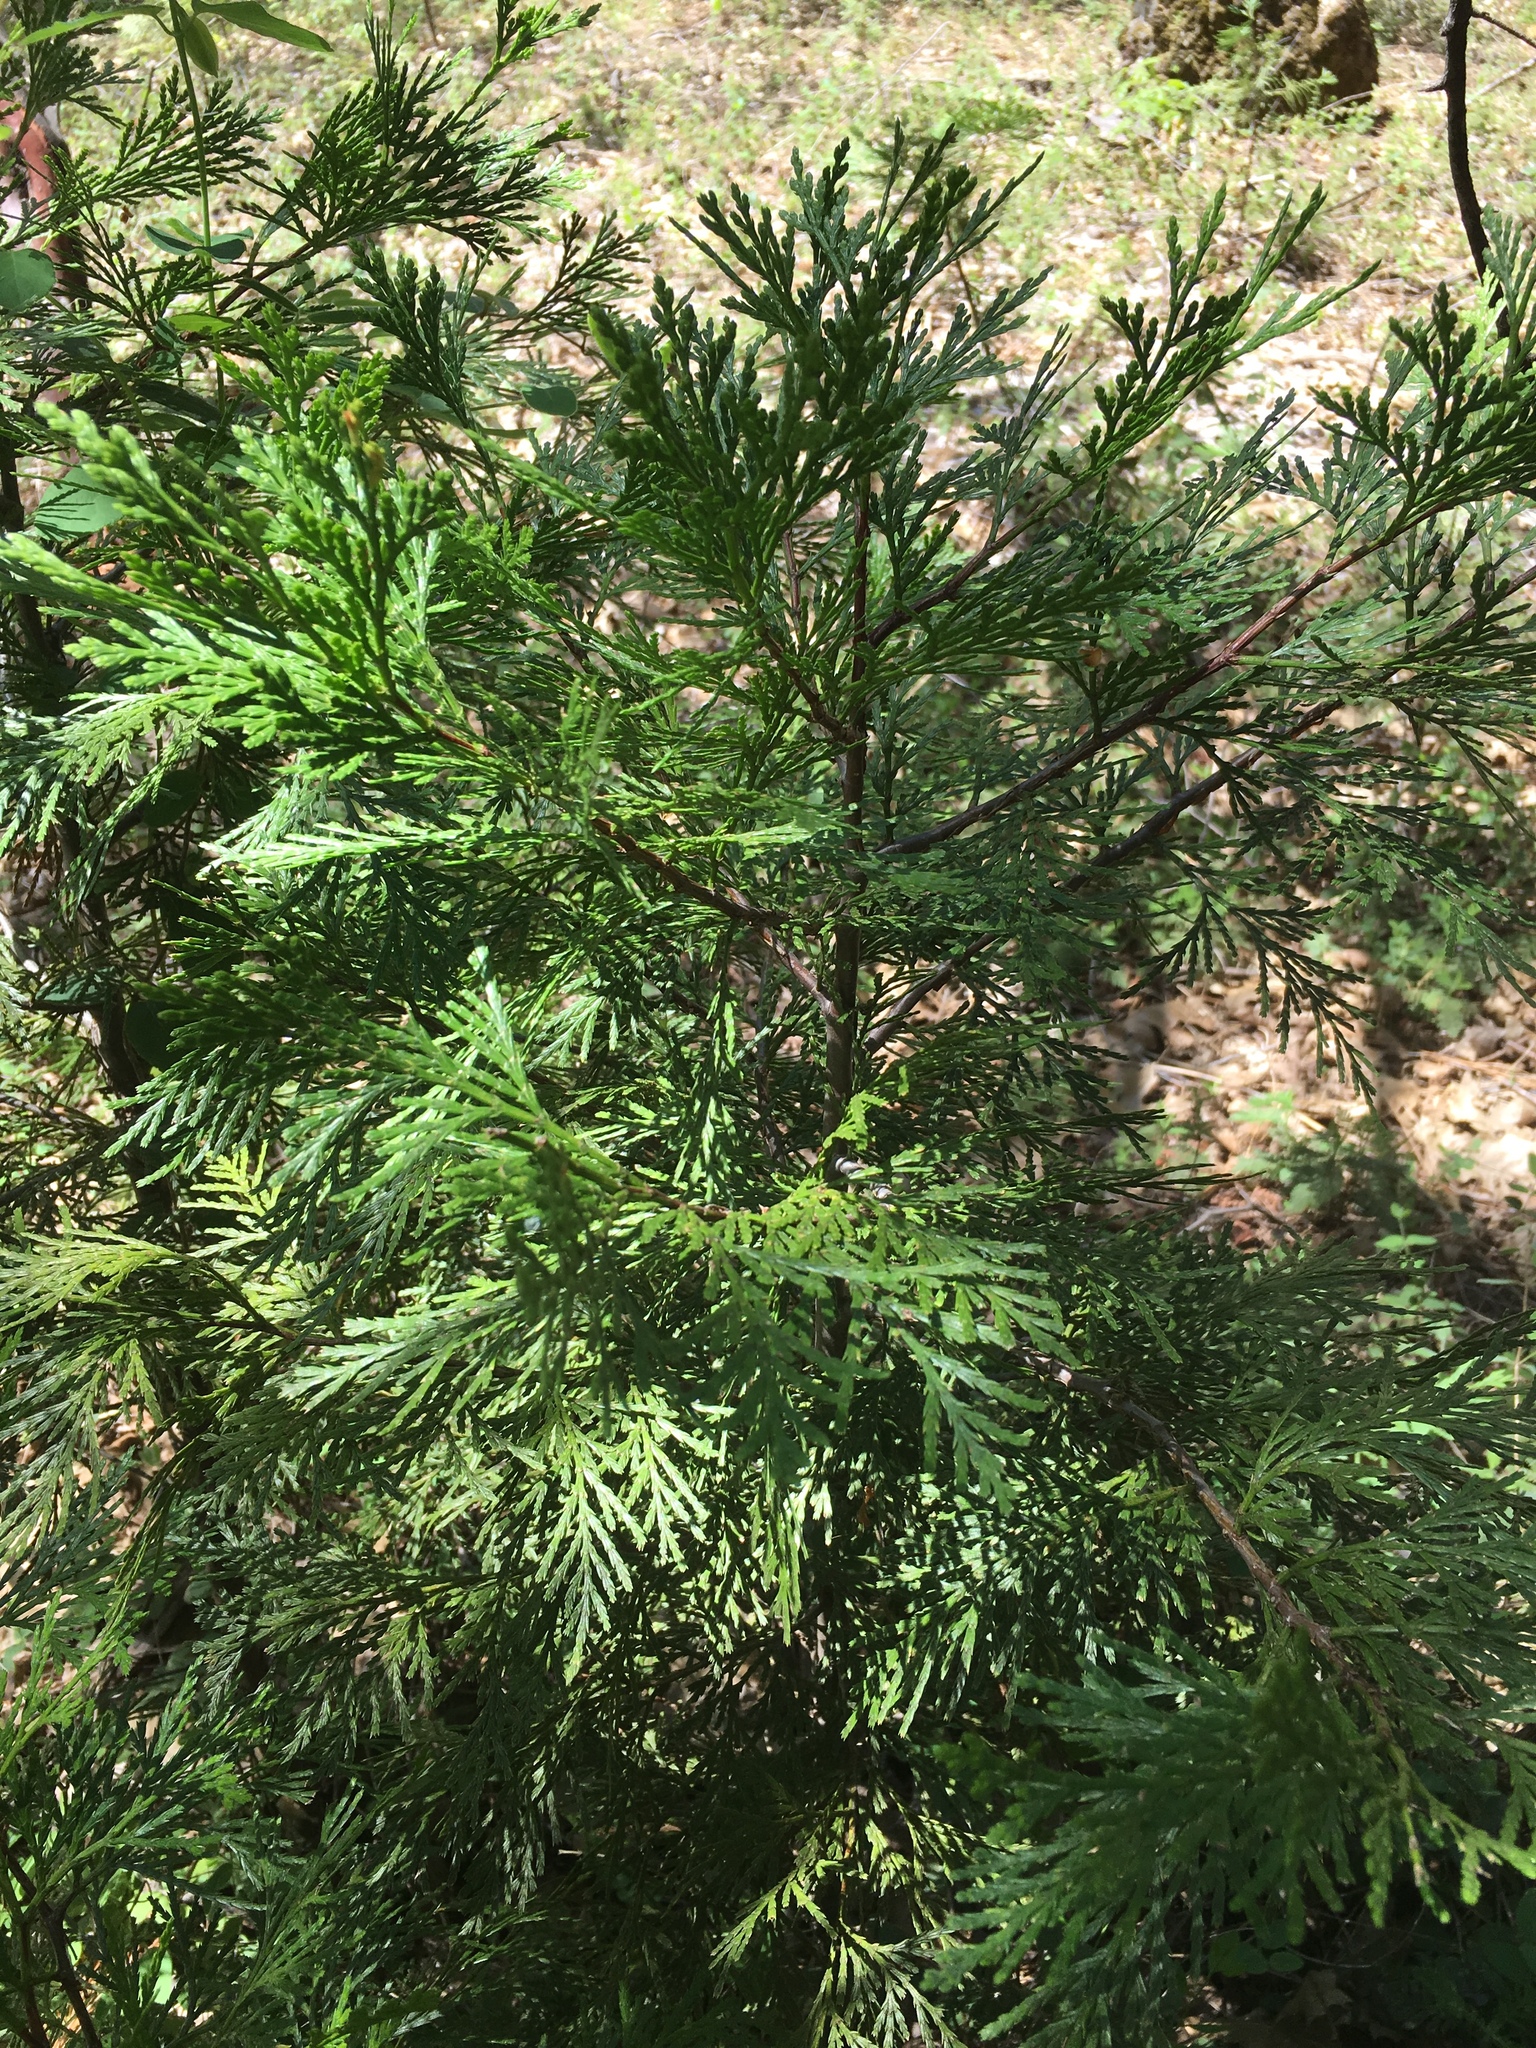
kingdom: Plantae
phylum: Tracheophyta
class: Pinopsida
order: Pinales
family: Cupressaceae
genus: Calocedrus
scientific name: Calocedrus decurrens
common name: Californian incense-cedar
